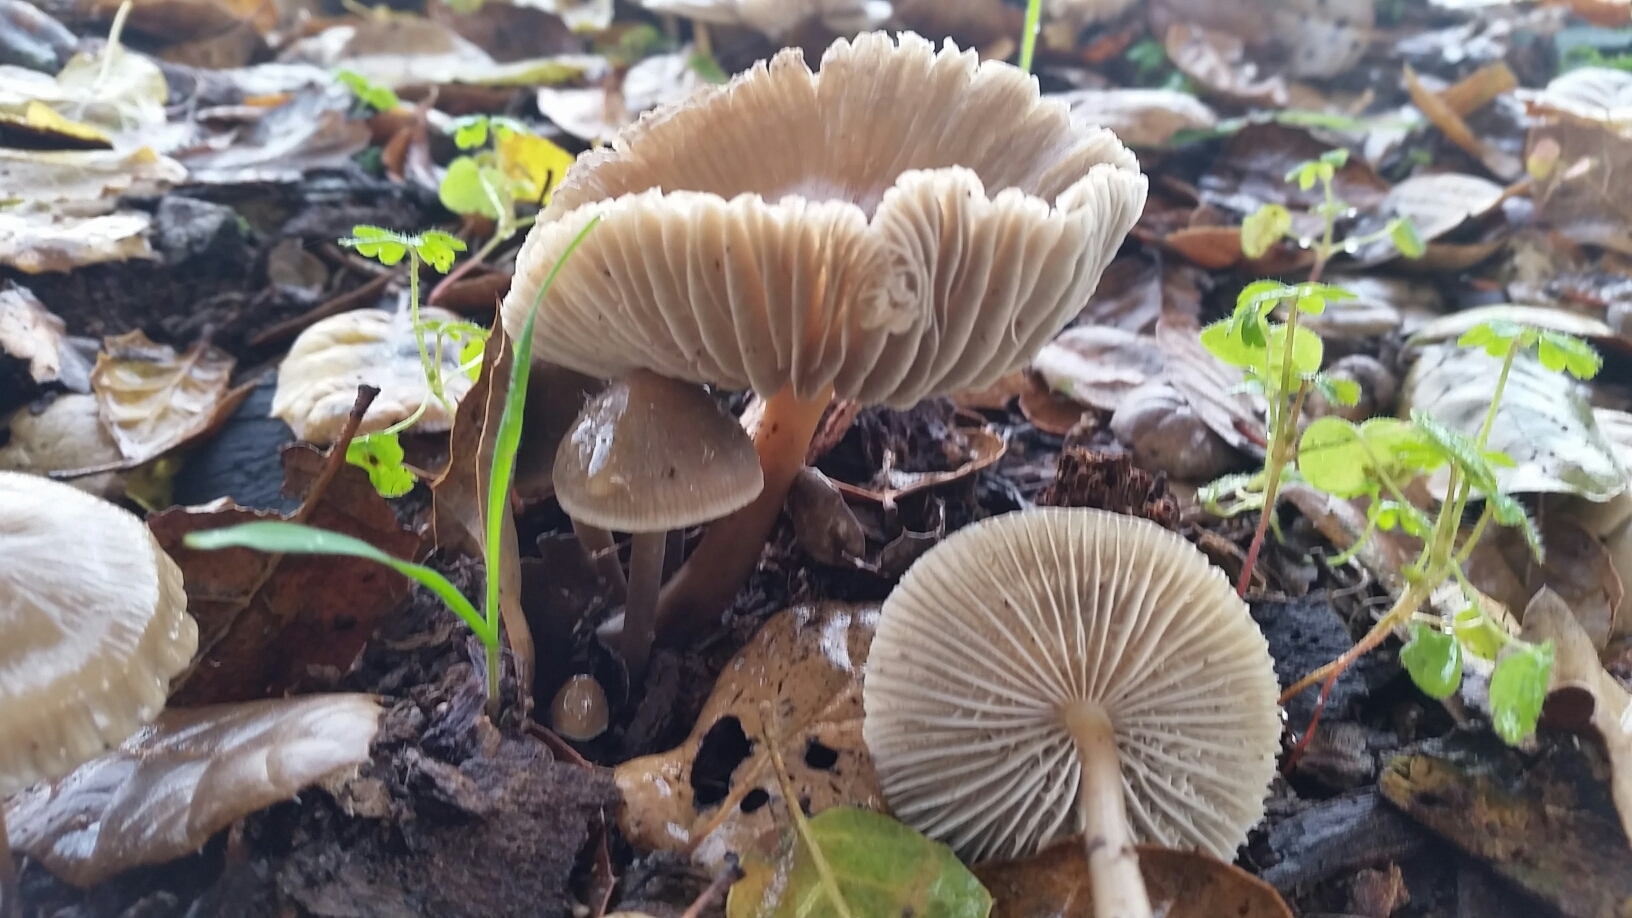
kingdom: Fungi
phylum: Basidiomycota
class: Agaricomycetes
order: Agaricales
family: Mycenaceae
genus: Mycena
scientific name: Mycena galericulata
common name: Bonnet mycena
